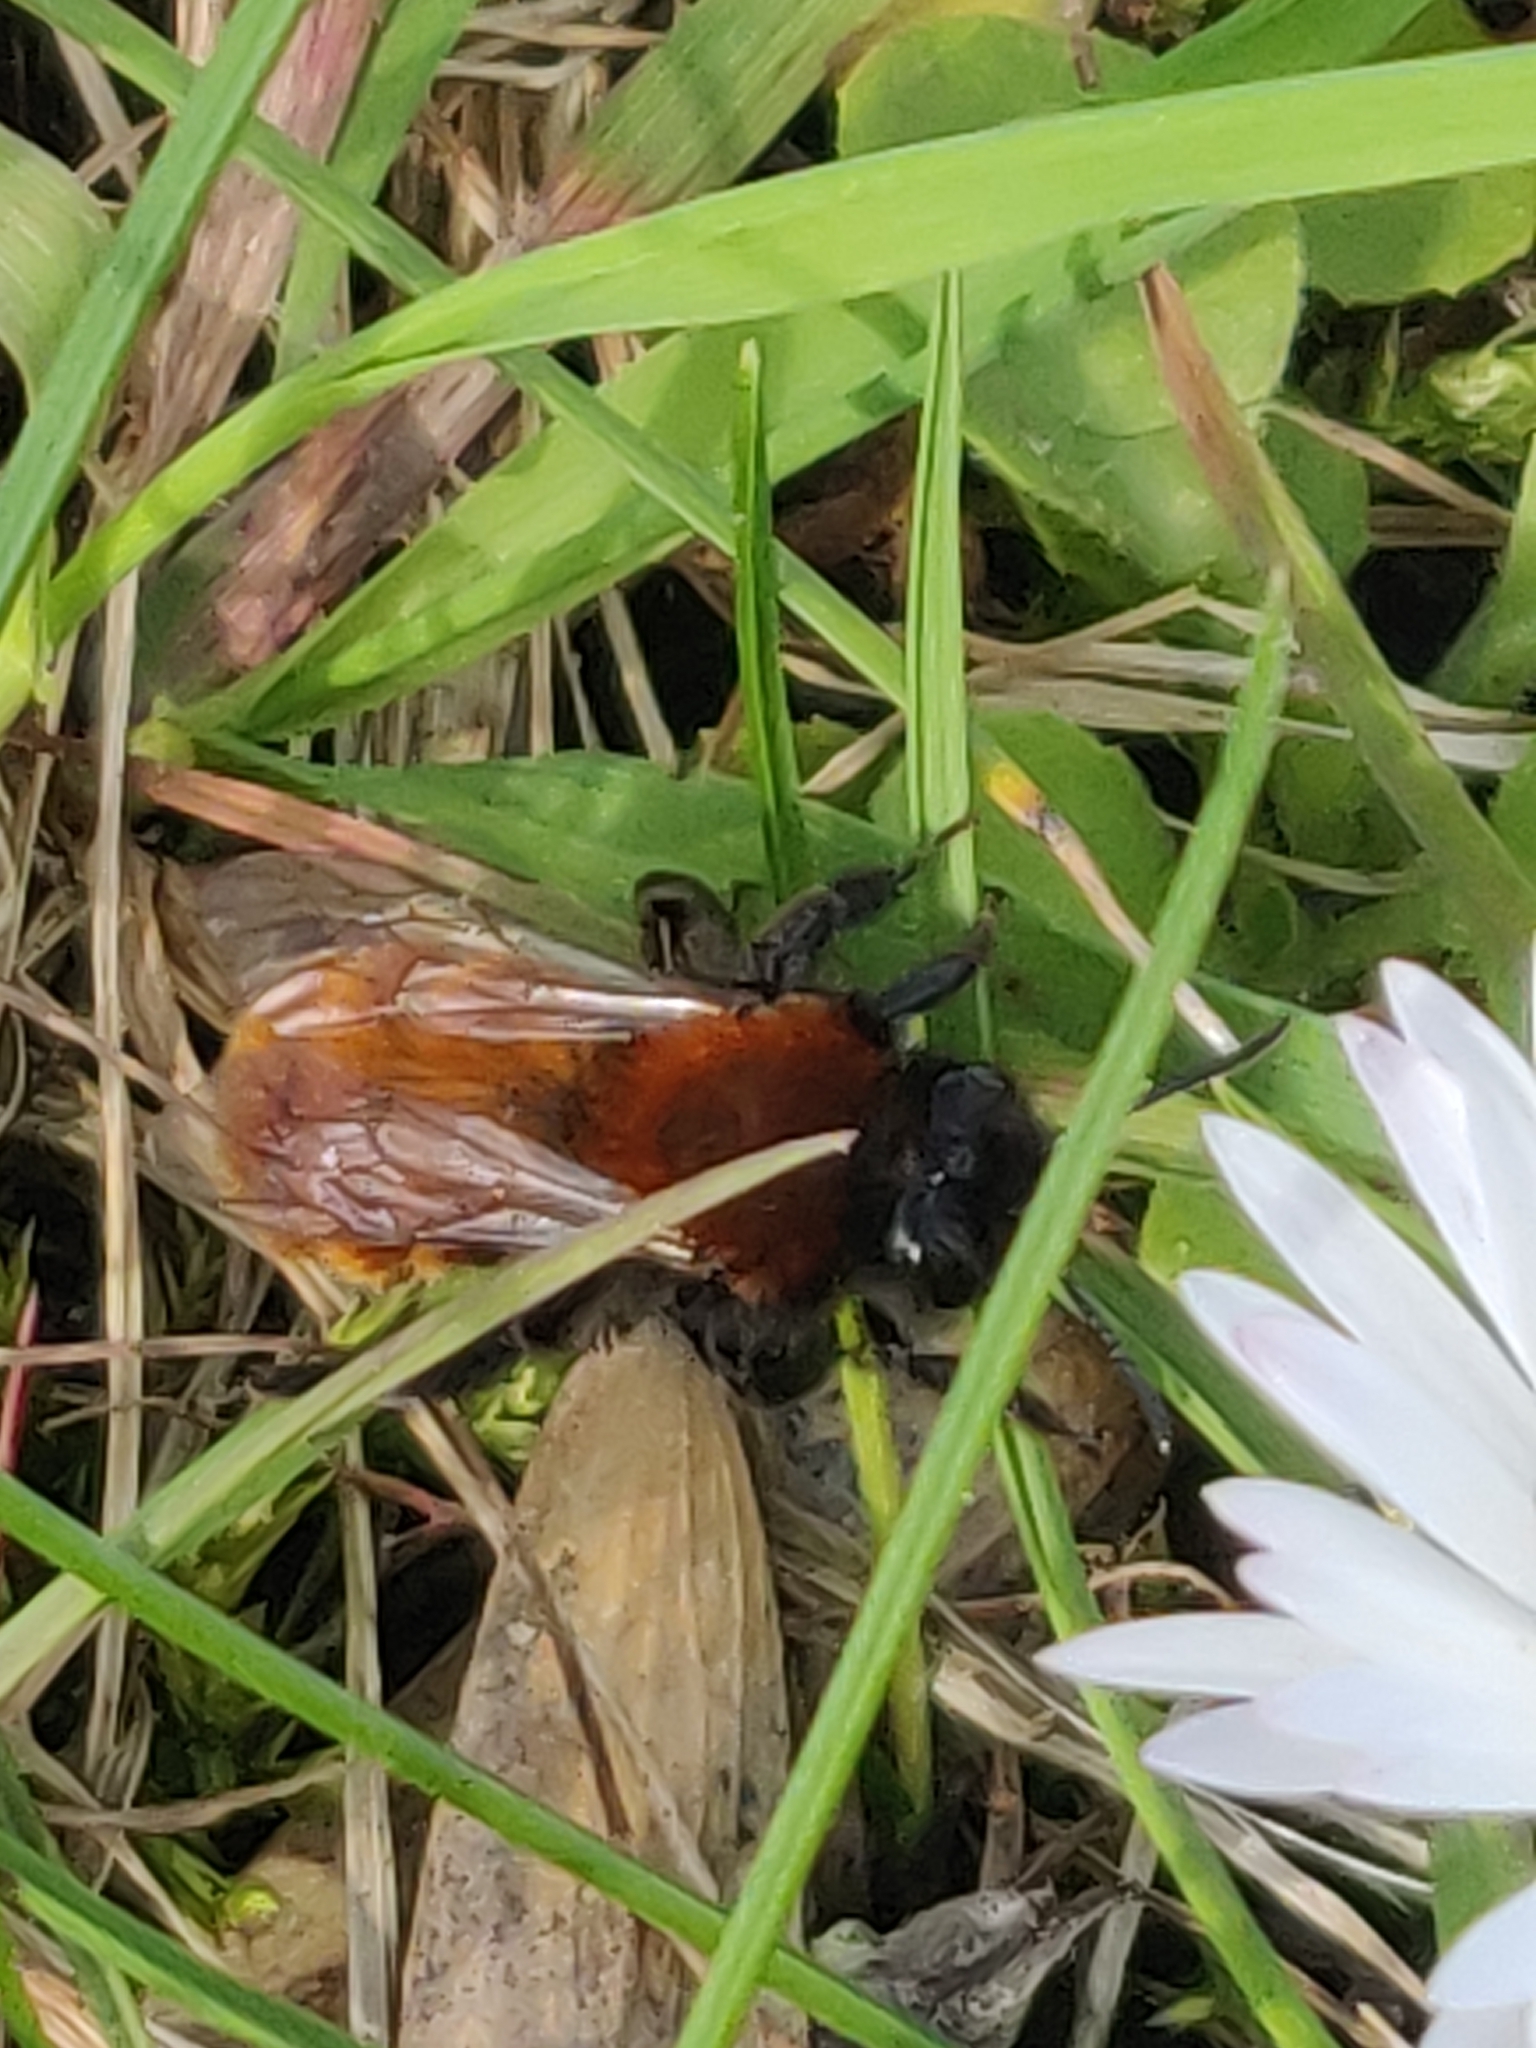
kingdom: Animalia
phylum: Arthropoda
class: Insecta
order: Hymenoptera
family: Andrenidae
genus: Andrena
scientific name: Andrena fulva
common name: Tawny mining bee
